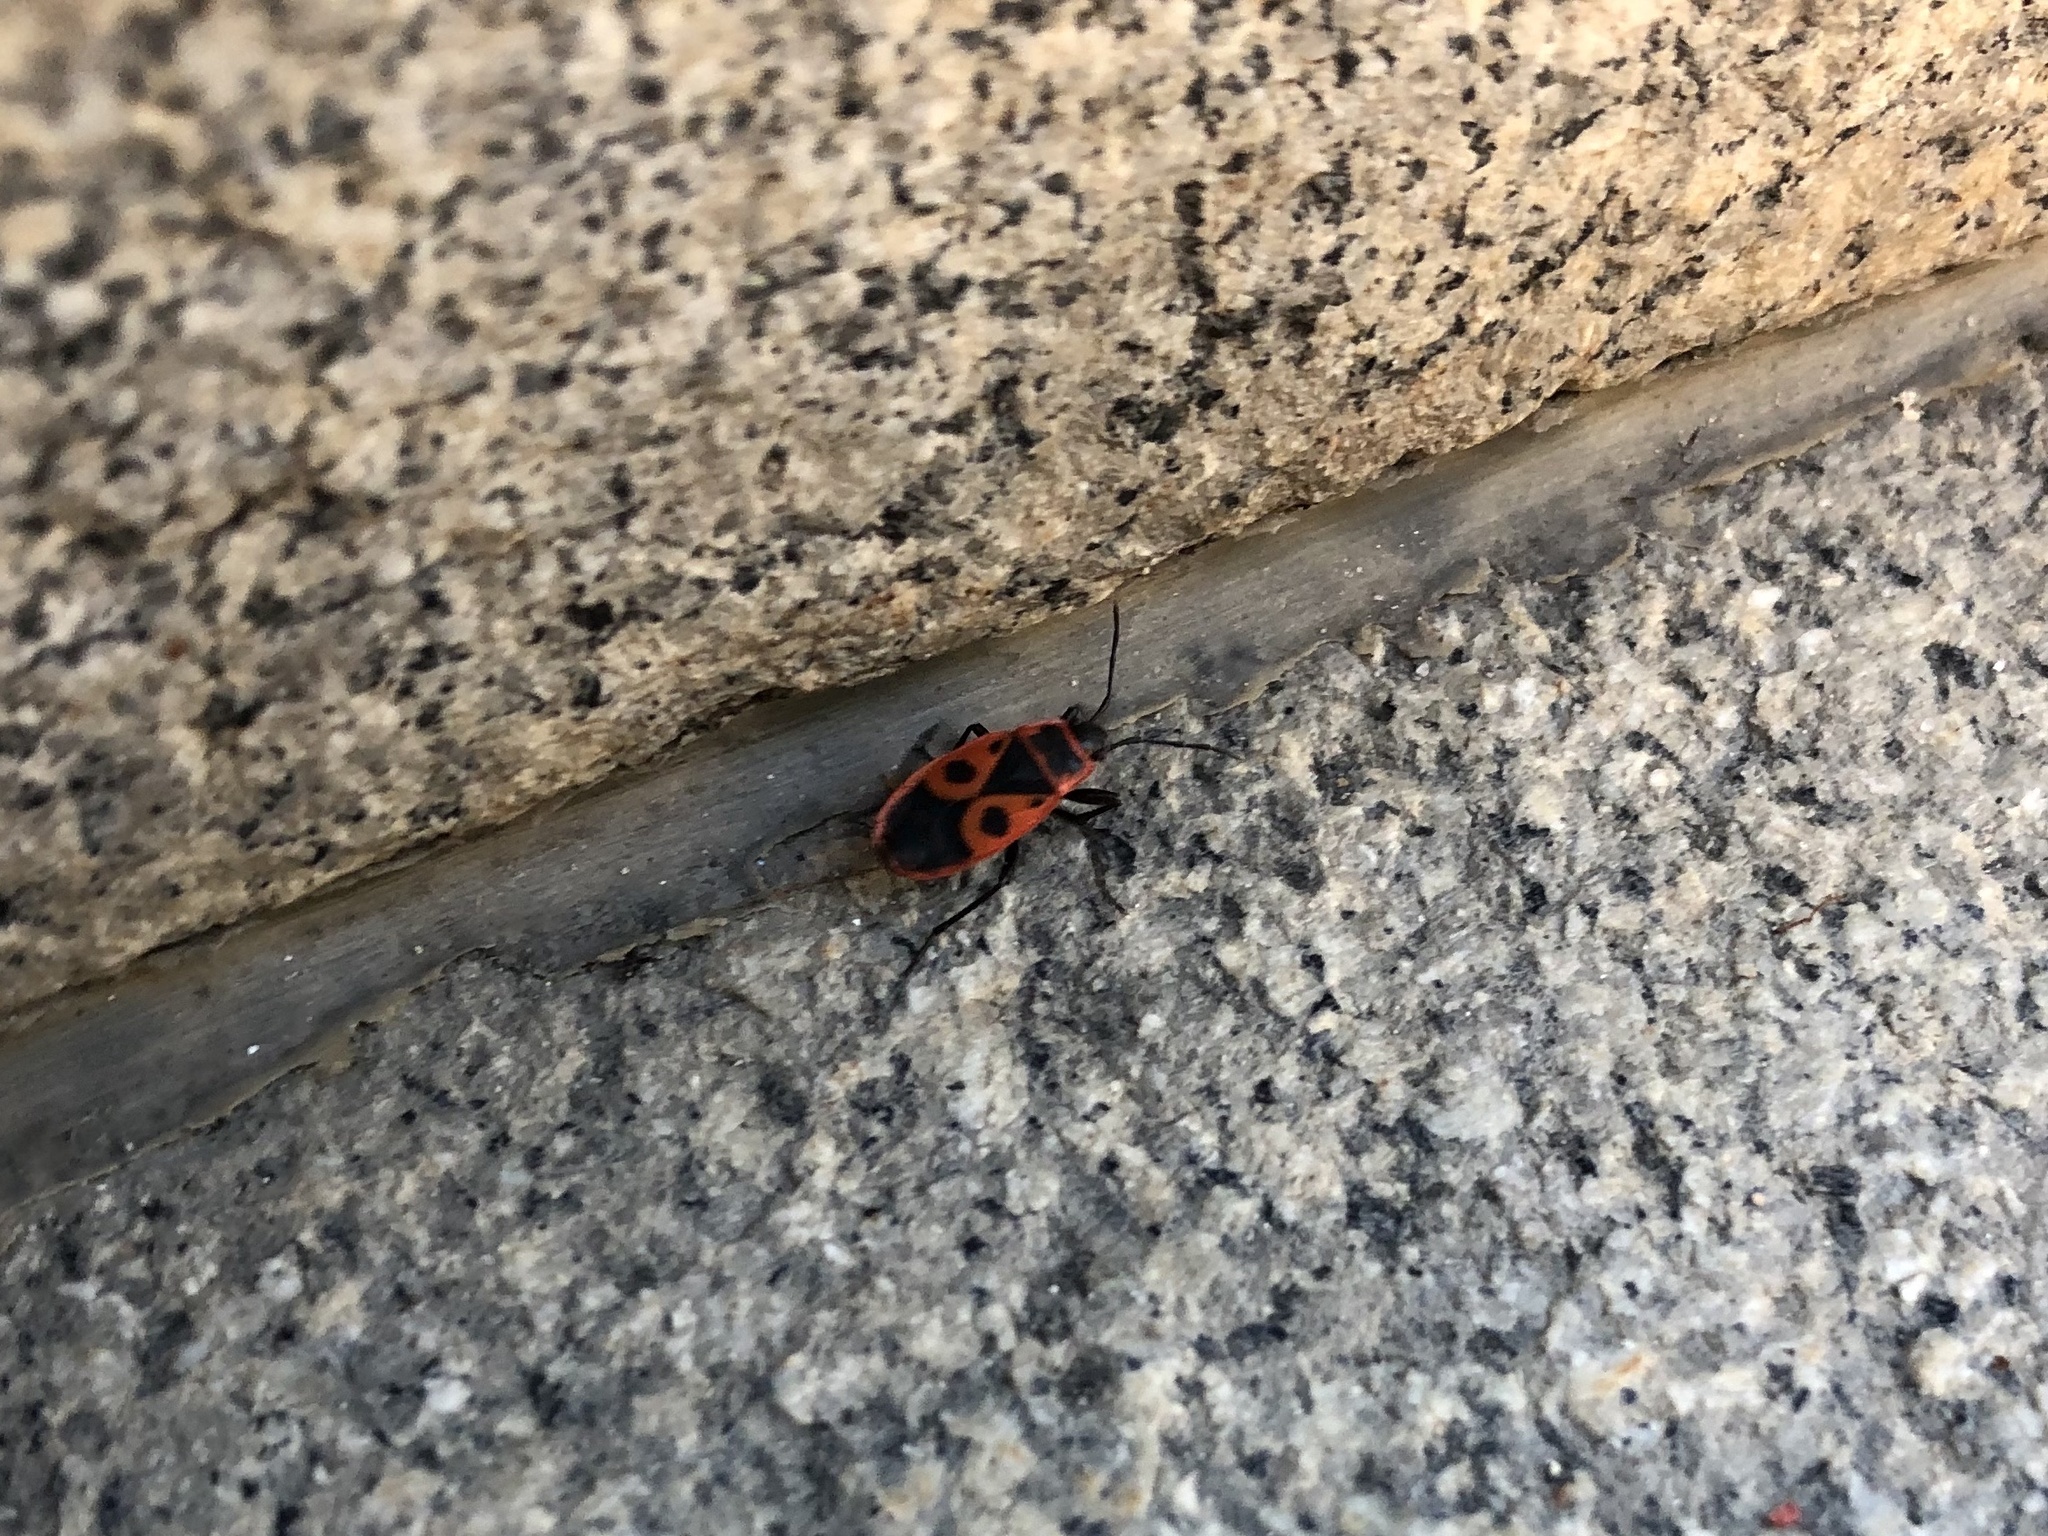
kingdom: Animalia
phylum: Arthropoda
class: Insecta
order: Hemiptera
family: Pyrrhocoridae
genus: Pyrrhocoris
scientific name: Pyrrhocoris apterus
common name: Firebug
